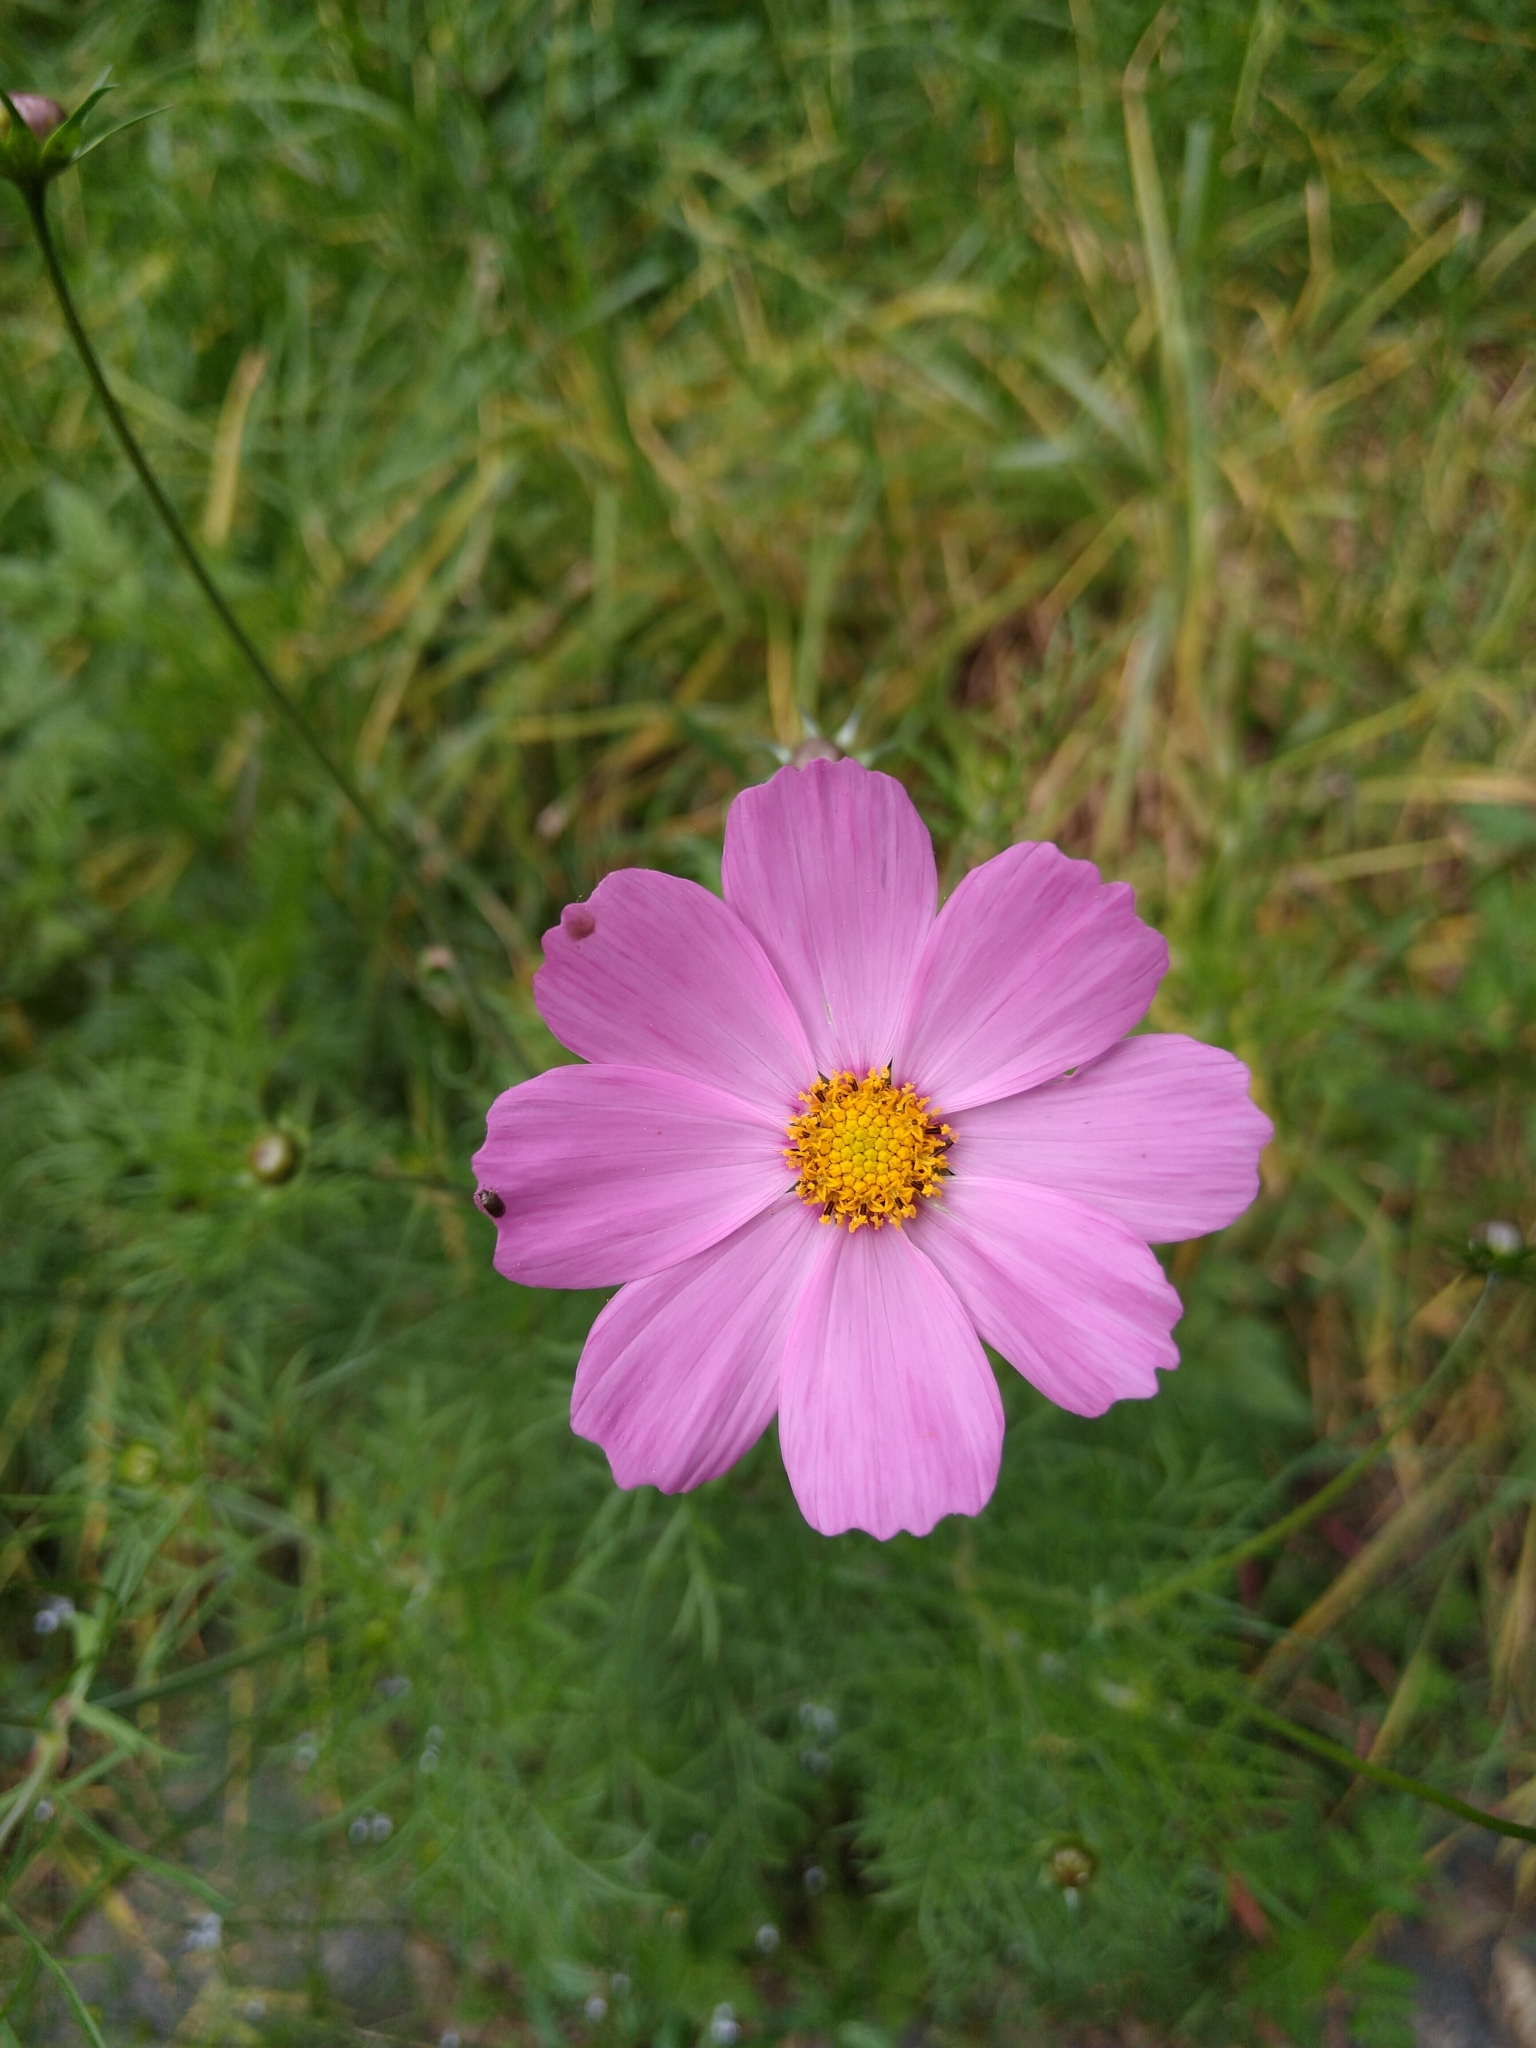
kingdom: Plantae
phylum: Tracheophyta
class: Magnoliopsida
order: Asterales
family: Asteraceae
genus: Cosmos
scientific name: Cosmos bipinnatus
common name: Garden cosmos
